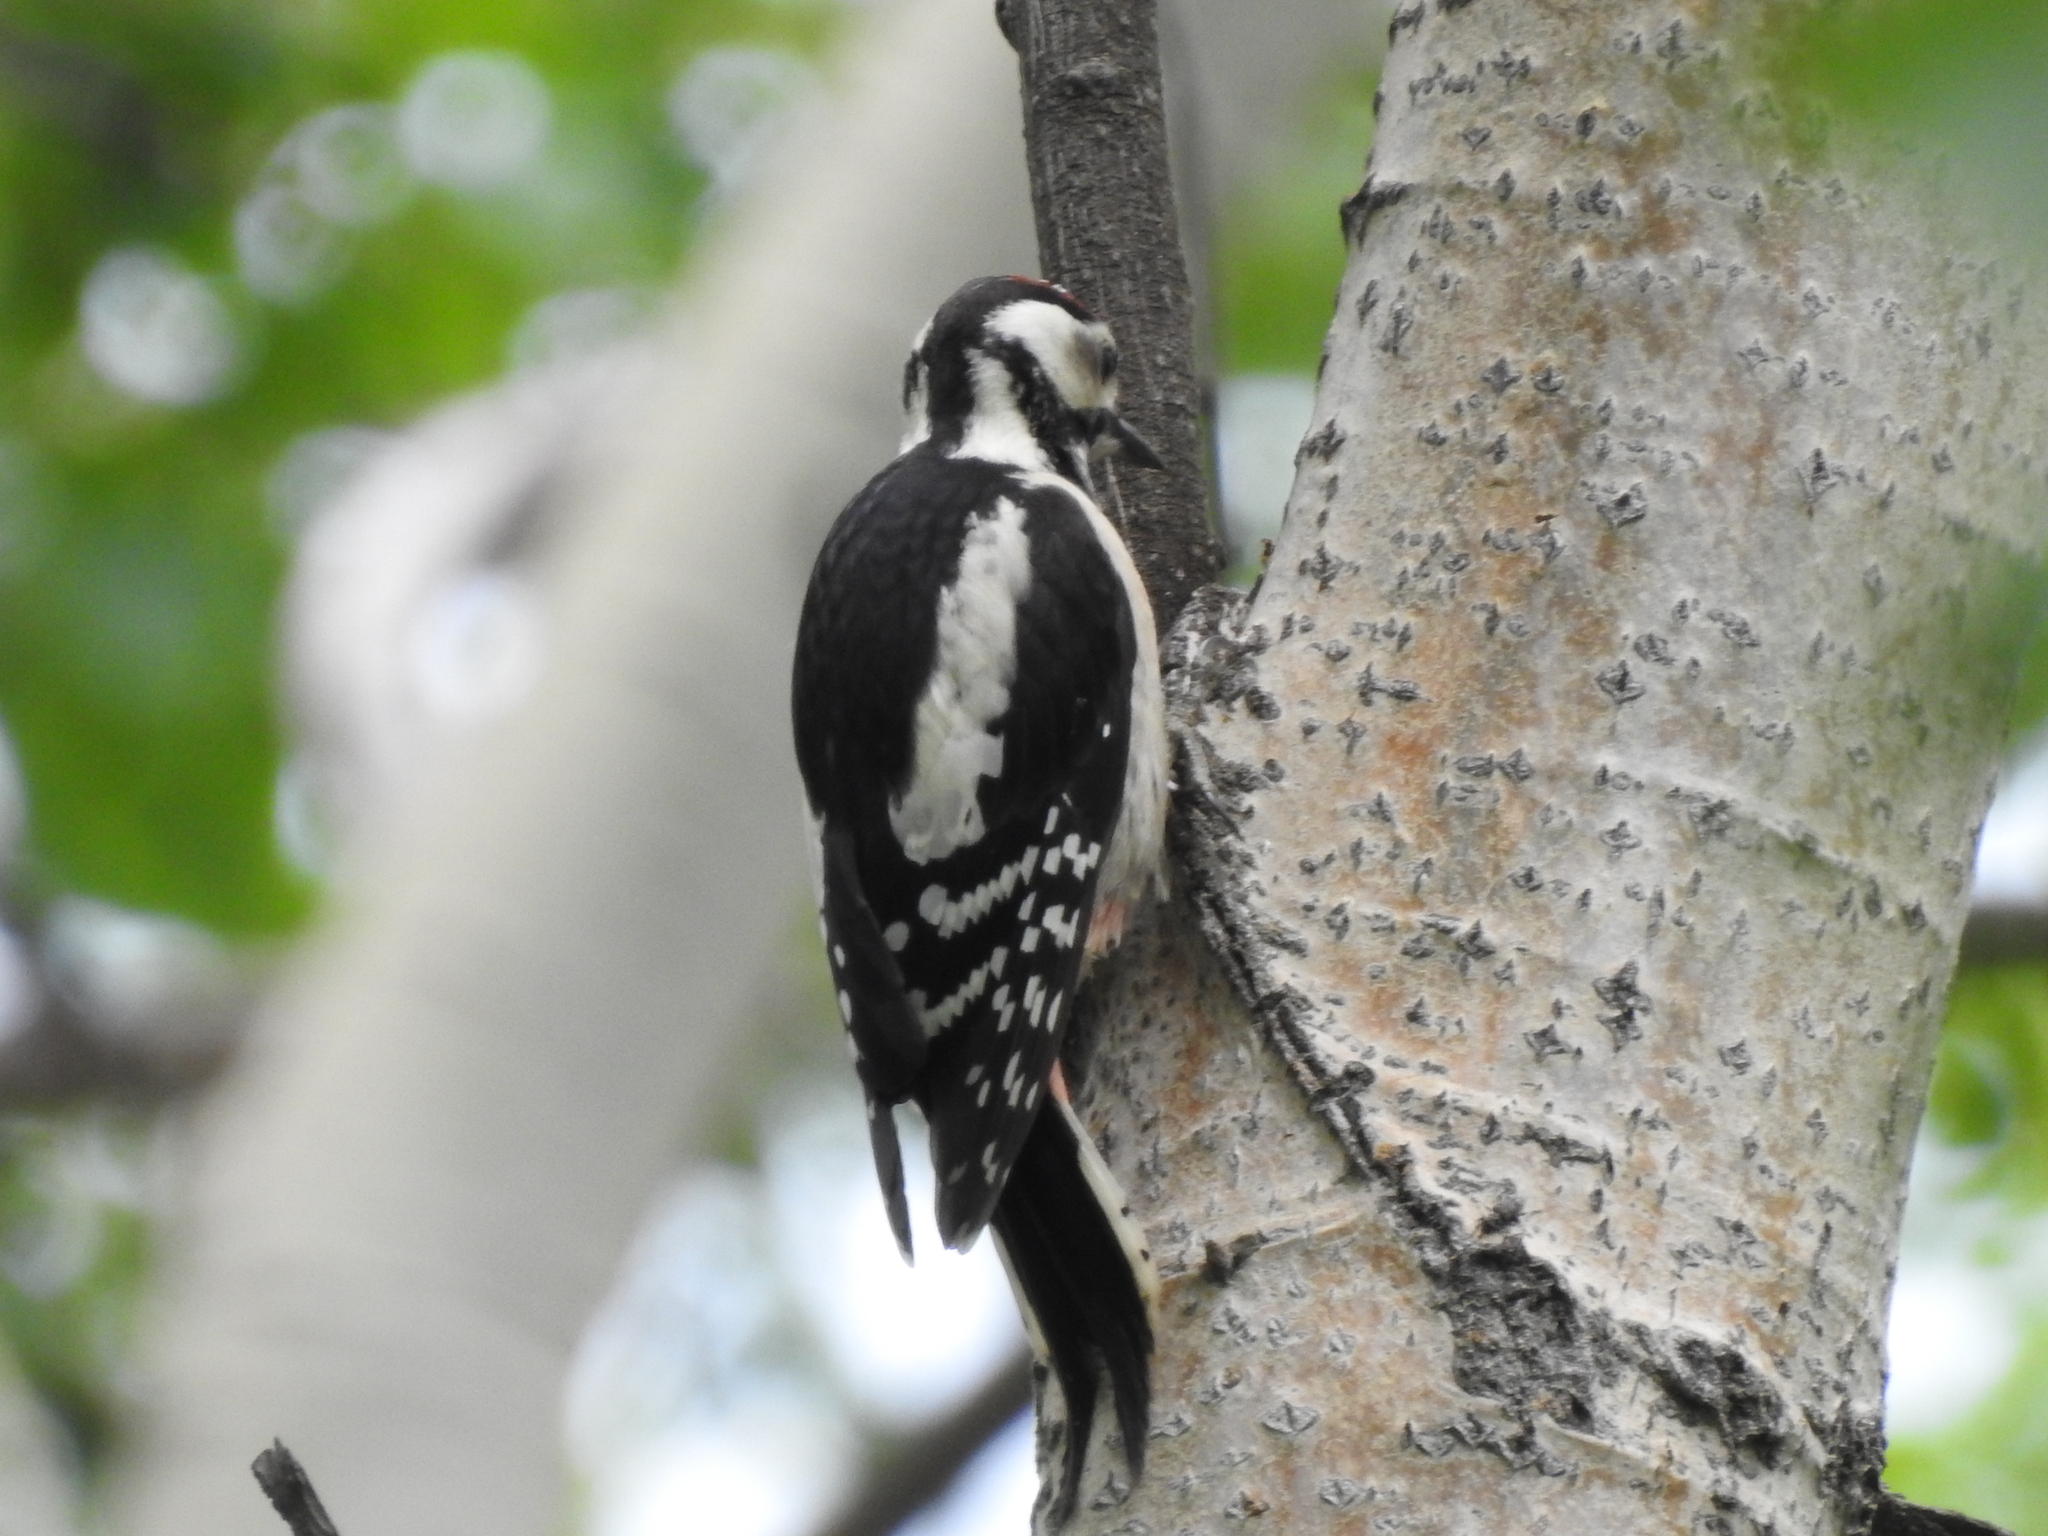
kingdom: Animalia
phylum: Chordata
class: Aves
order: Piciformes
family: Picidae
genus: Dendrocopos
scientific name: Dendrocopos major
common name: Great spotted woodpecker
